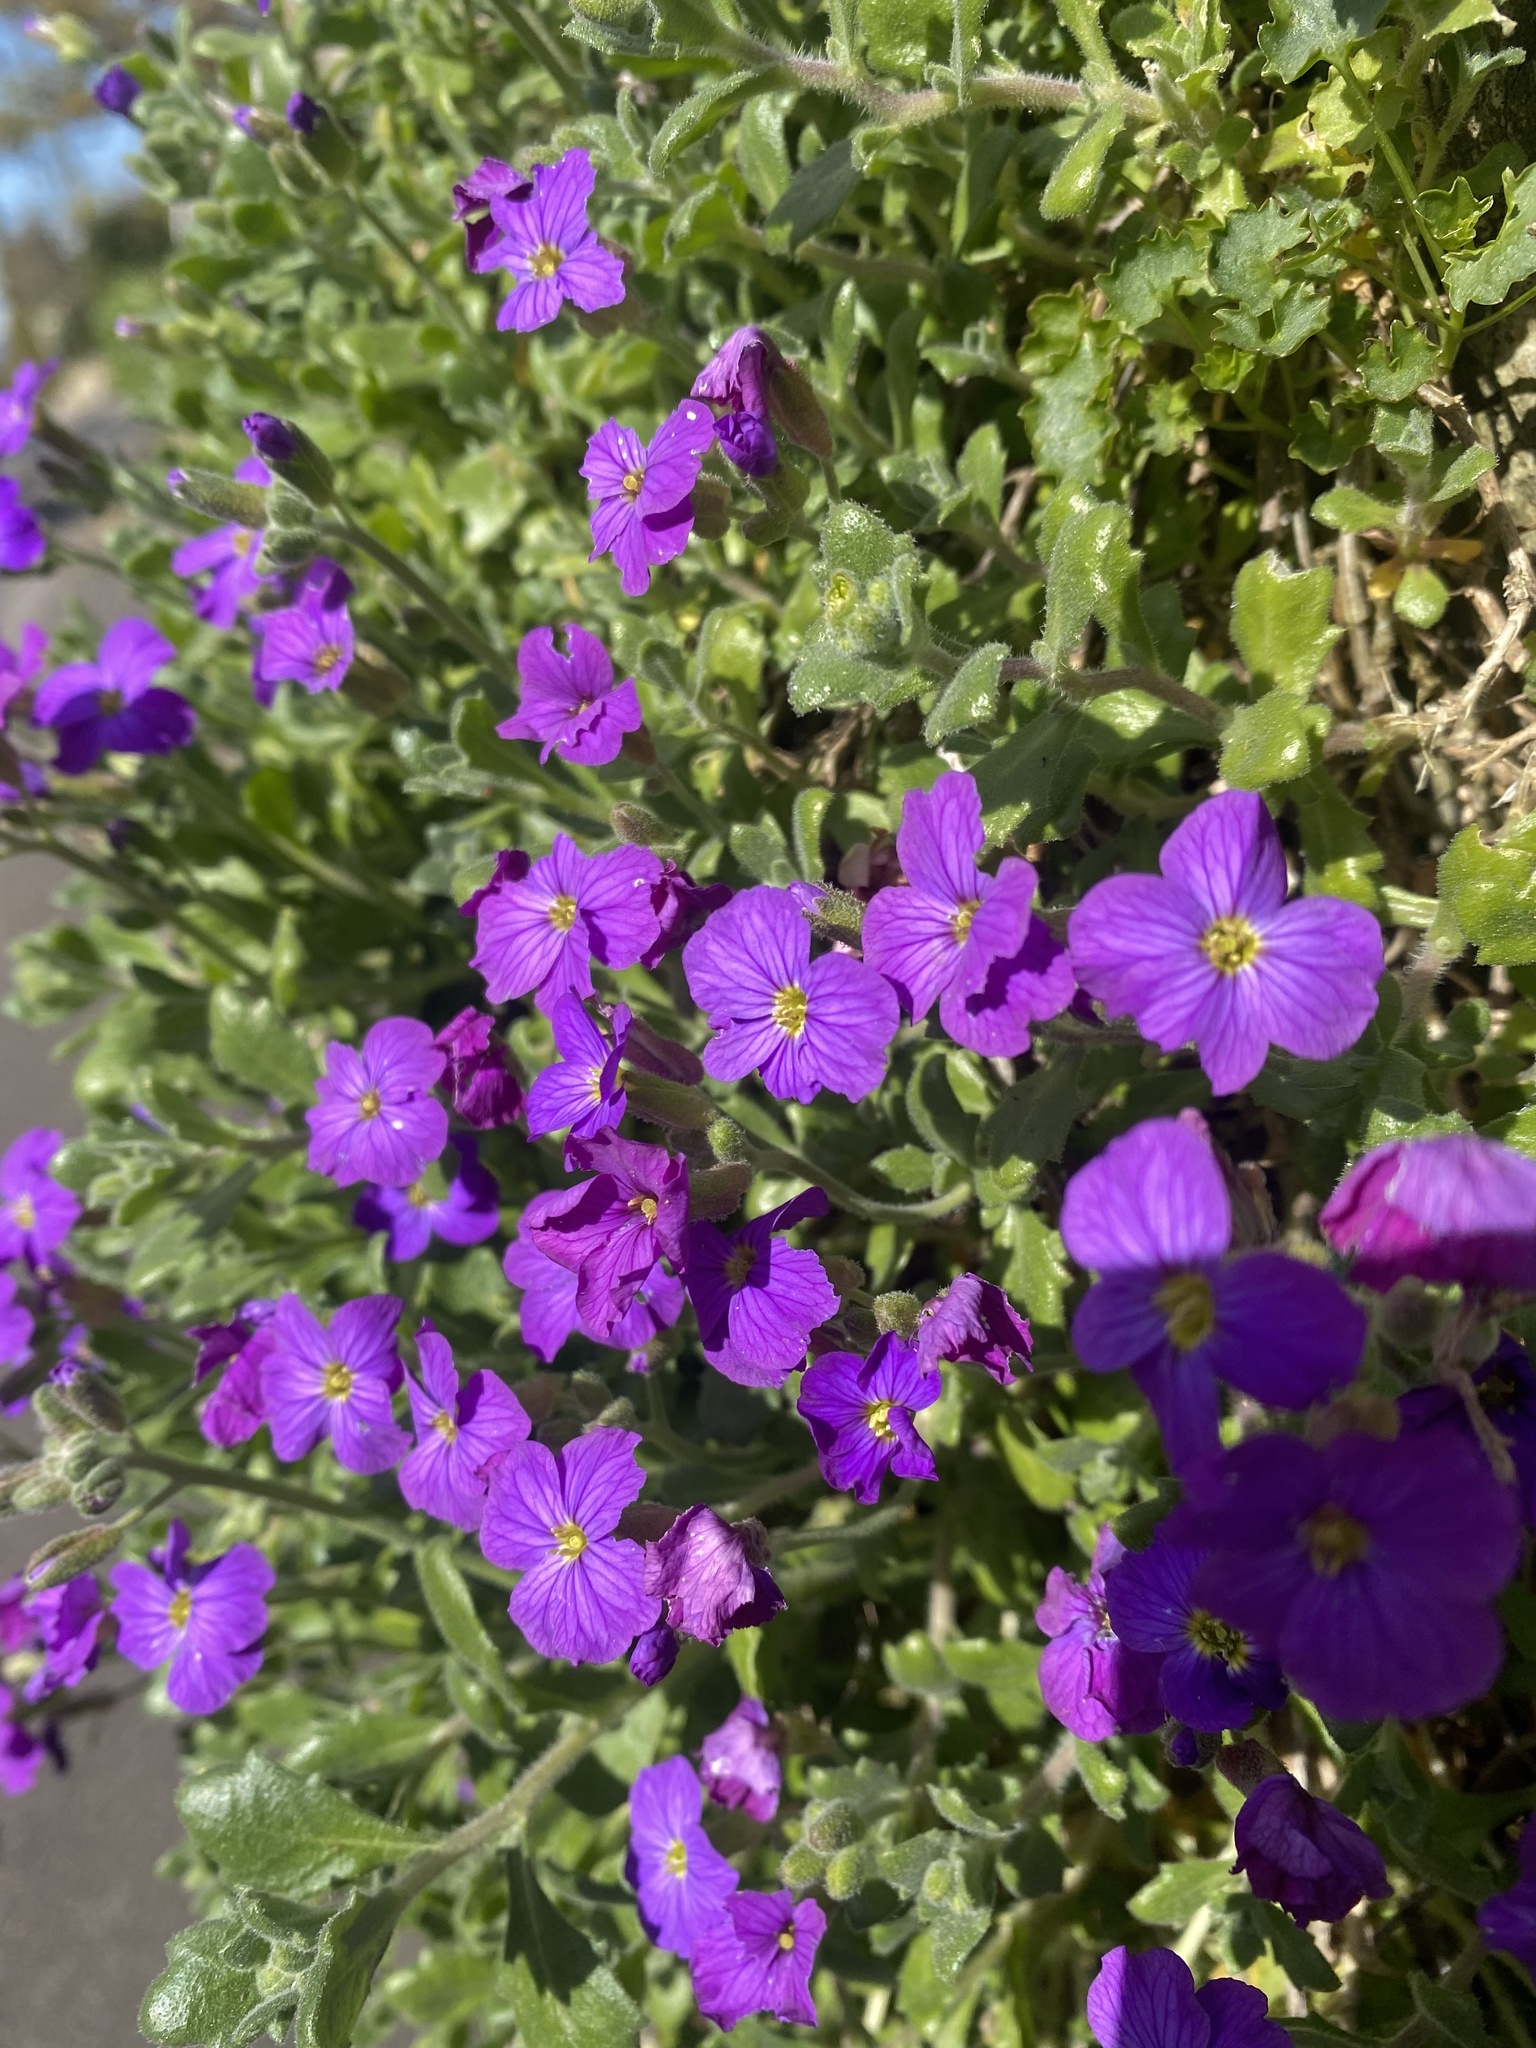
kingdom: Plantae
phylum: Tracheophyta
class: Magnoliopsida
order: Brassicales
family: Brassicaceae
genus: Aubrieta
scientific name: Aubrieta deltoidea
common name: Aubretia
